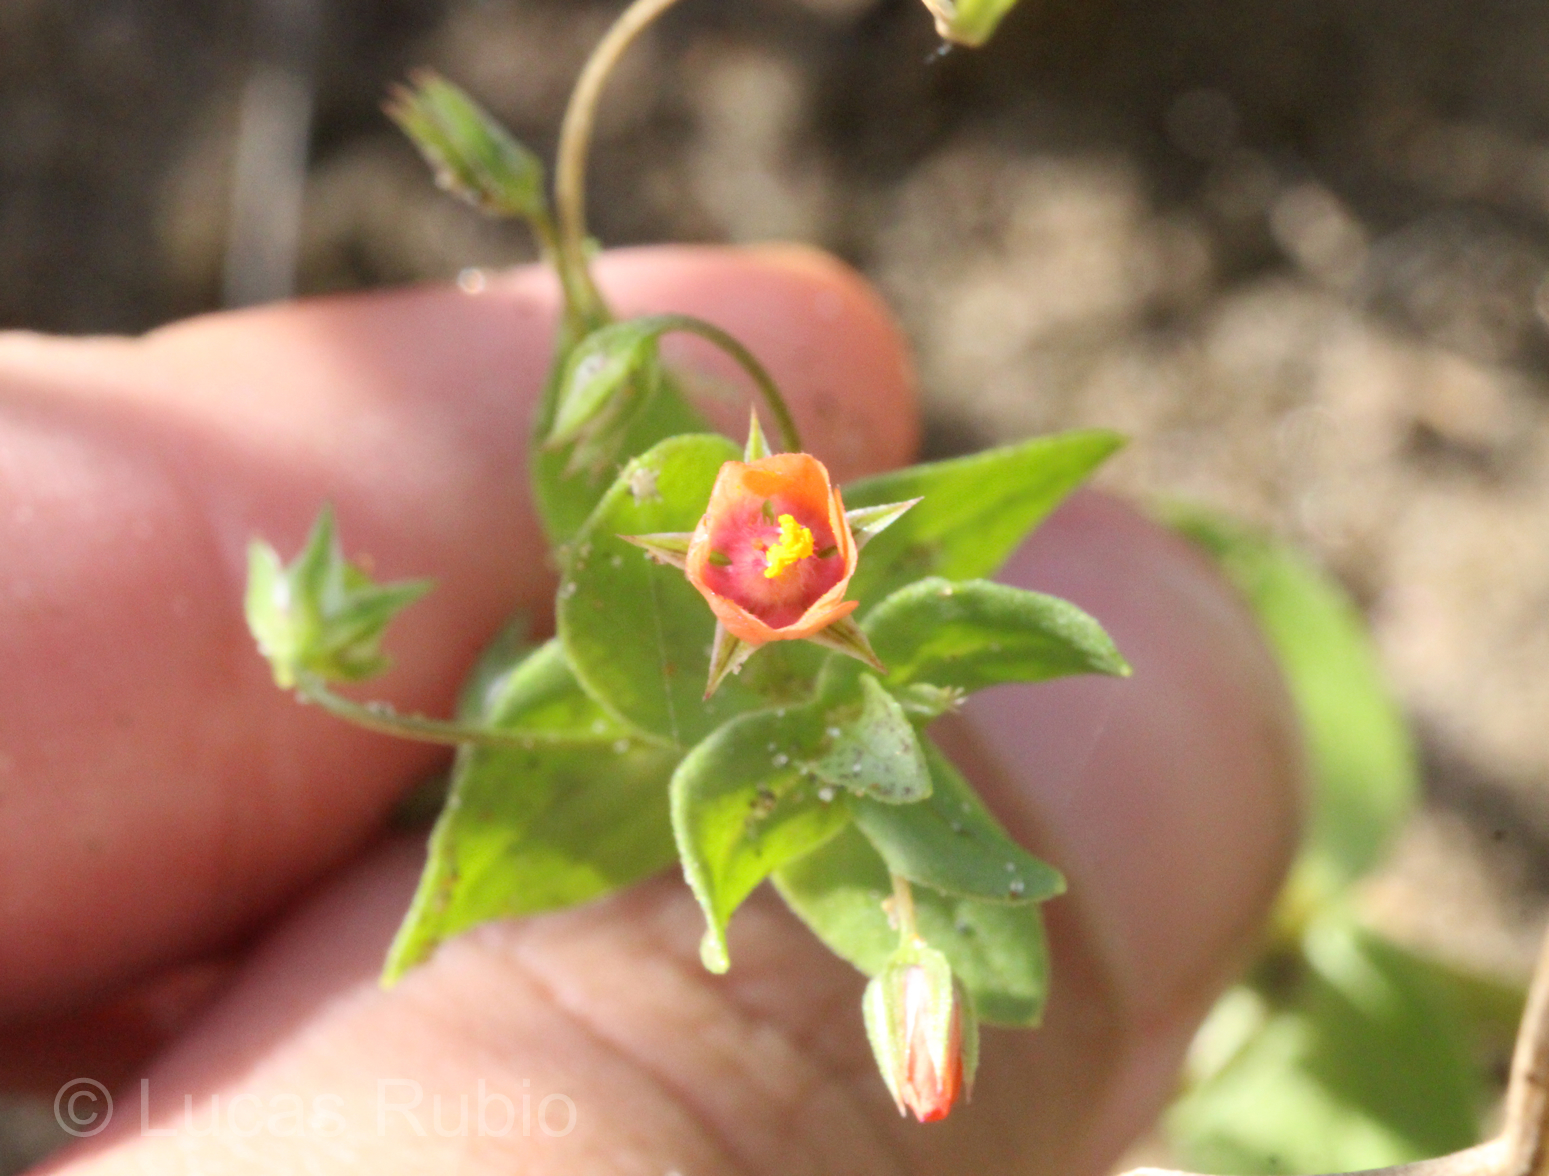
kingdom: Plantae
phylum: Tracheophyta
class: Magnoliopsida
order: Ericales
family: Primulaceae
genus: Lysimachia
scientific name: Lysimachia arvensis
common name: Scarlet pimpernel
